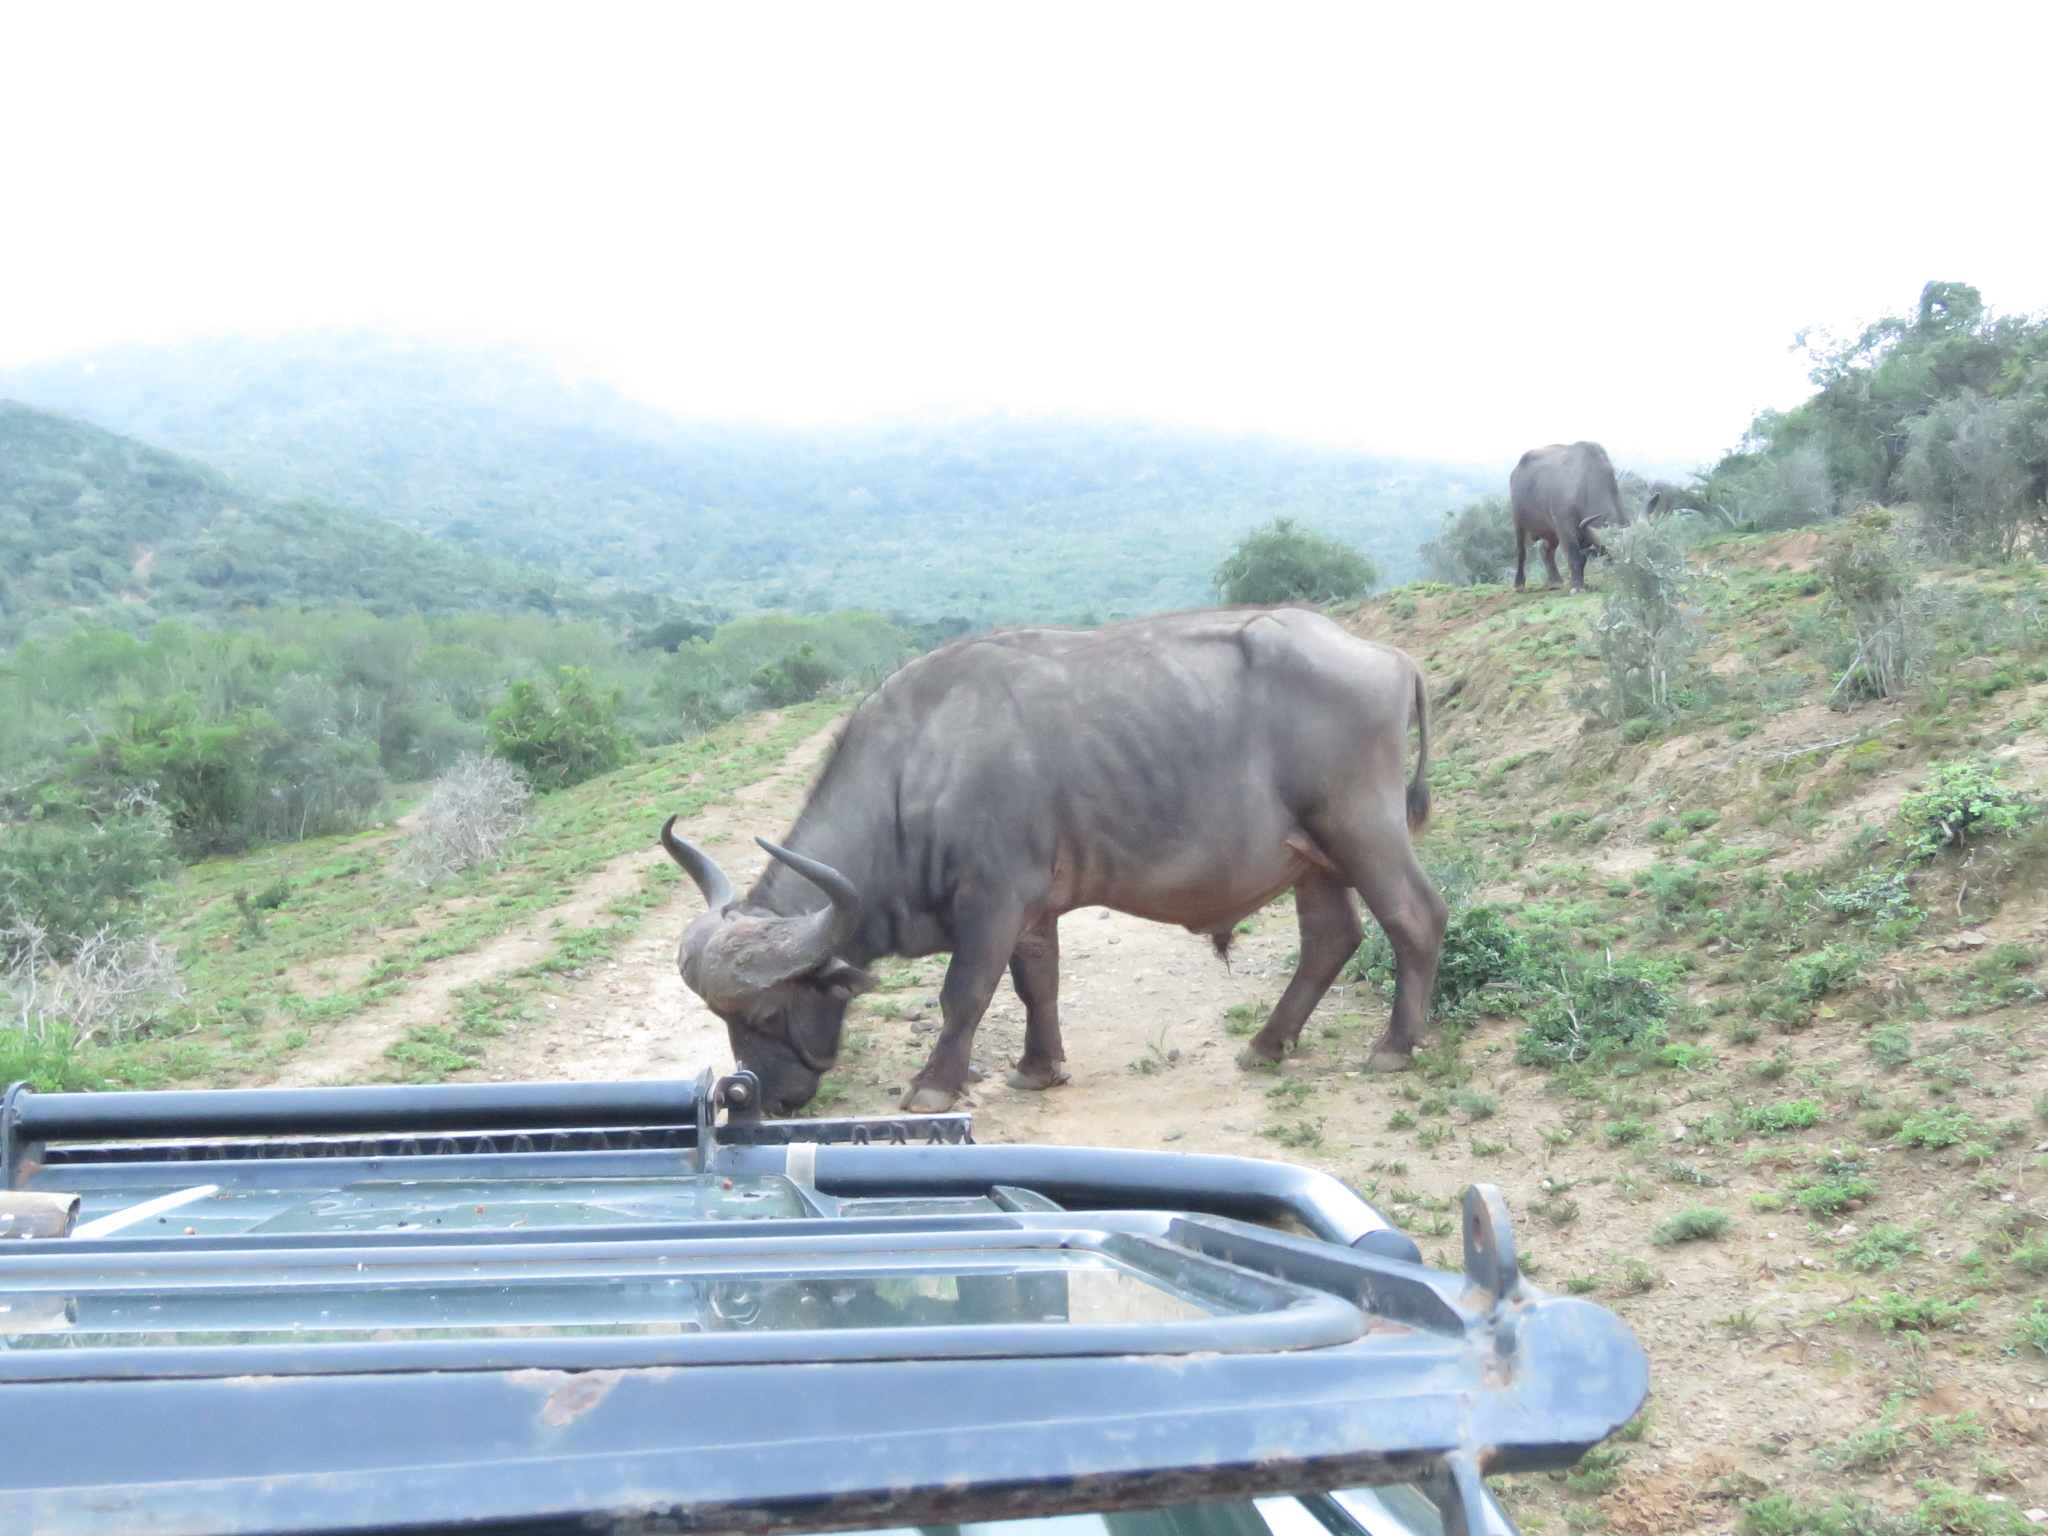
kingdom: Animalia
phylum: Chordata
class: Mammalia
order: Artiodactyla
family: Bovidae
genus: Syncerus
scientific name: Syncerus caffer
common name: African buffalo
